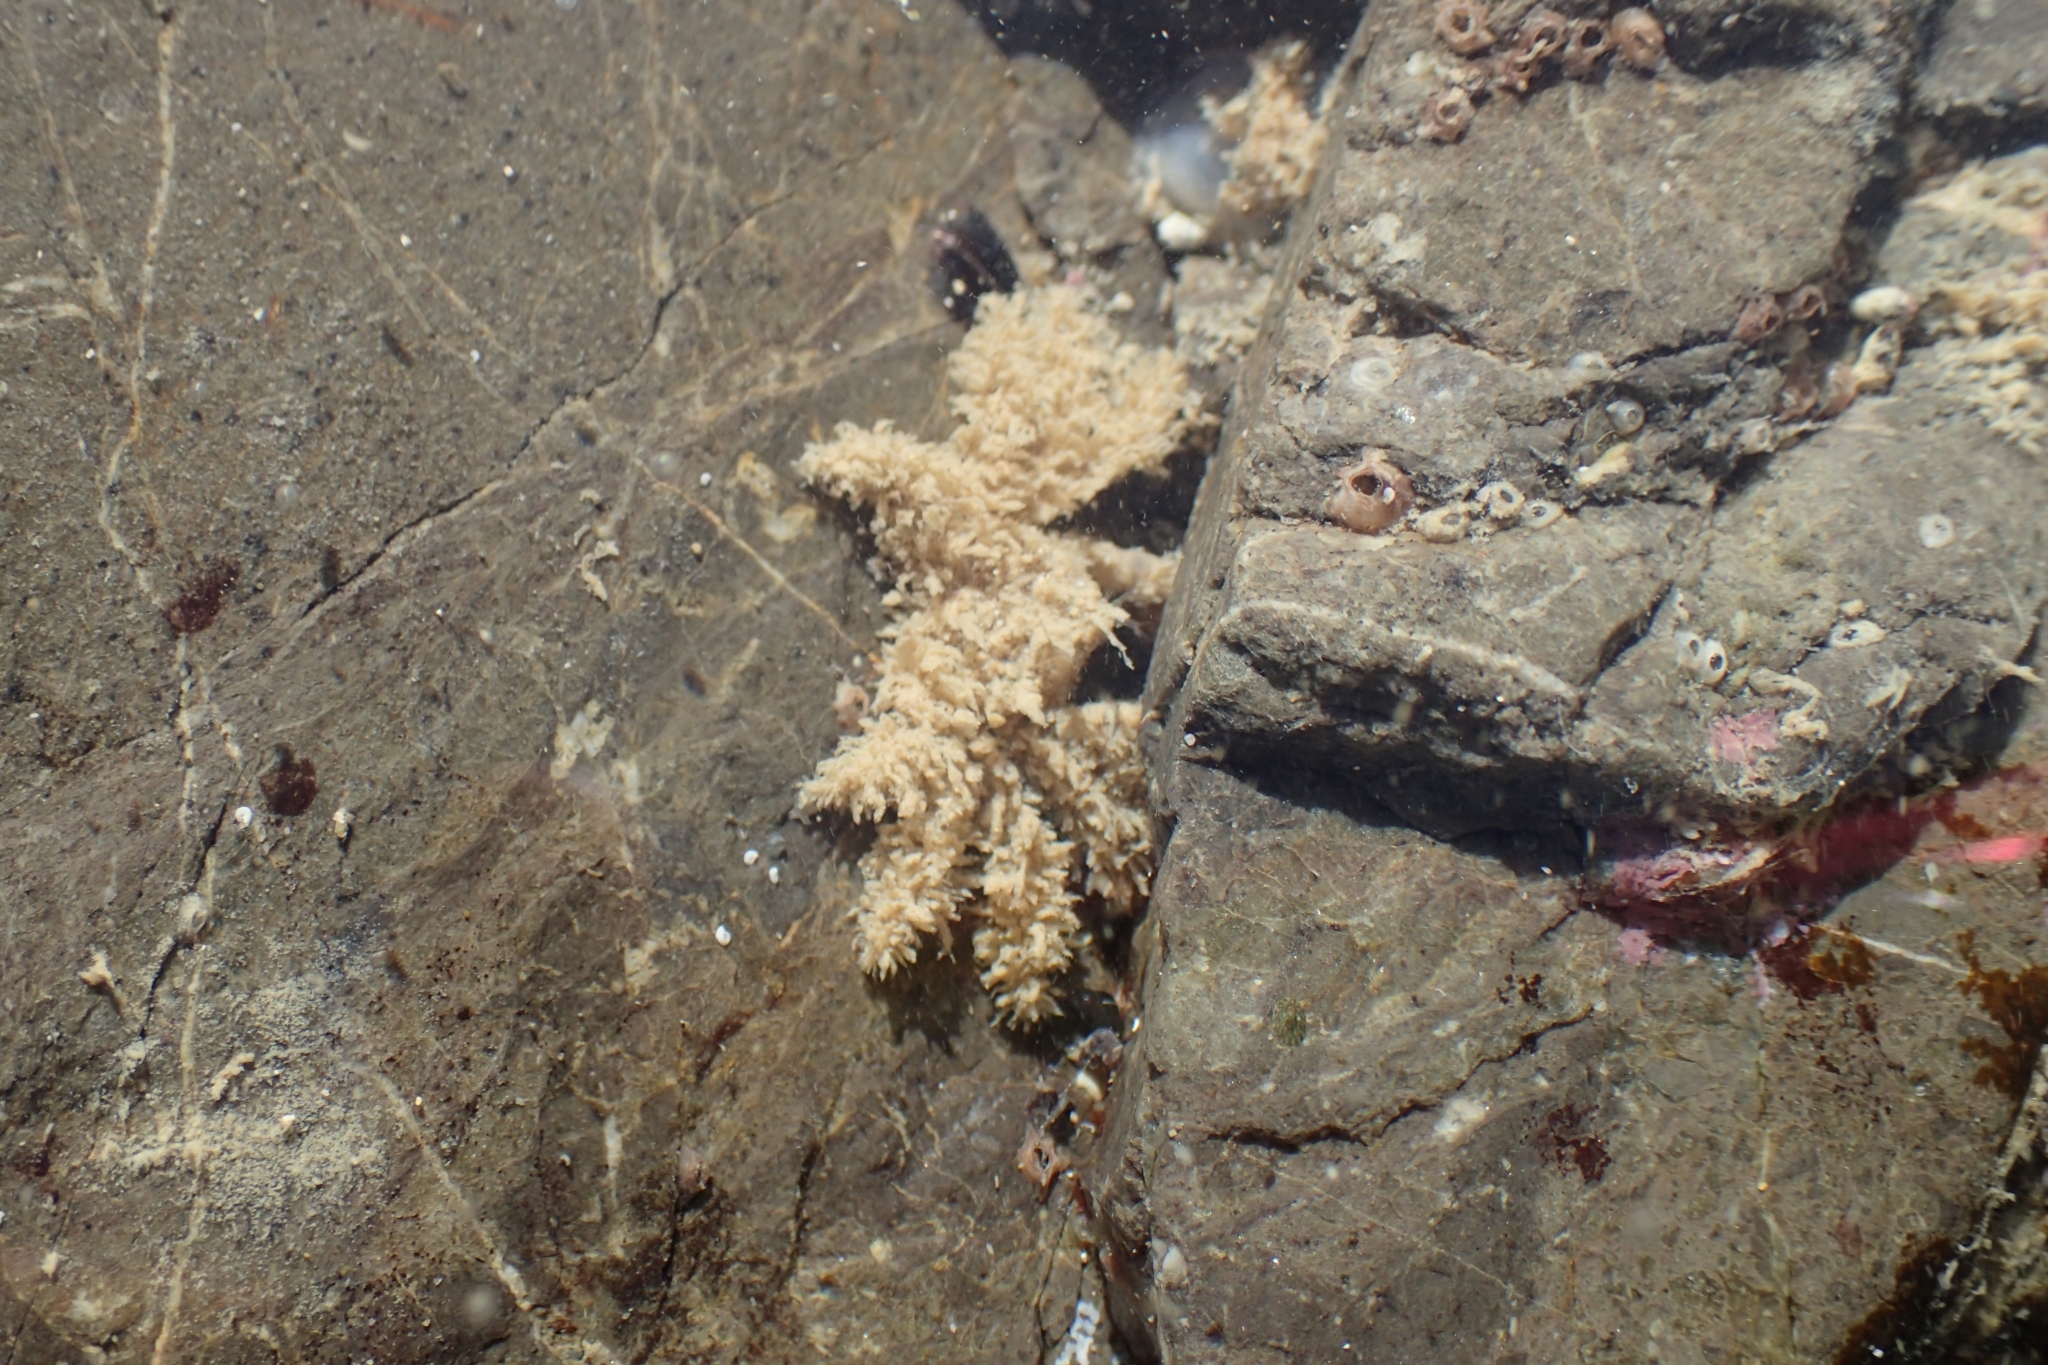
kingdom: Animalia
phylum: Arthropoda
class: Malacostraca
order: Decapoda
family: Hymenosomatidae
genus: Neohymenicus
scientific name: Neohymenicus pubescens
